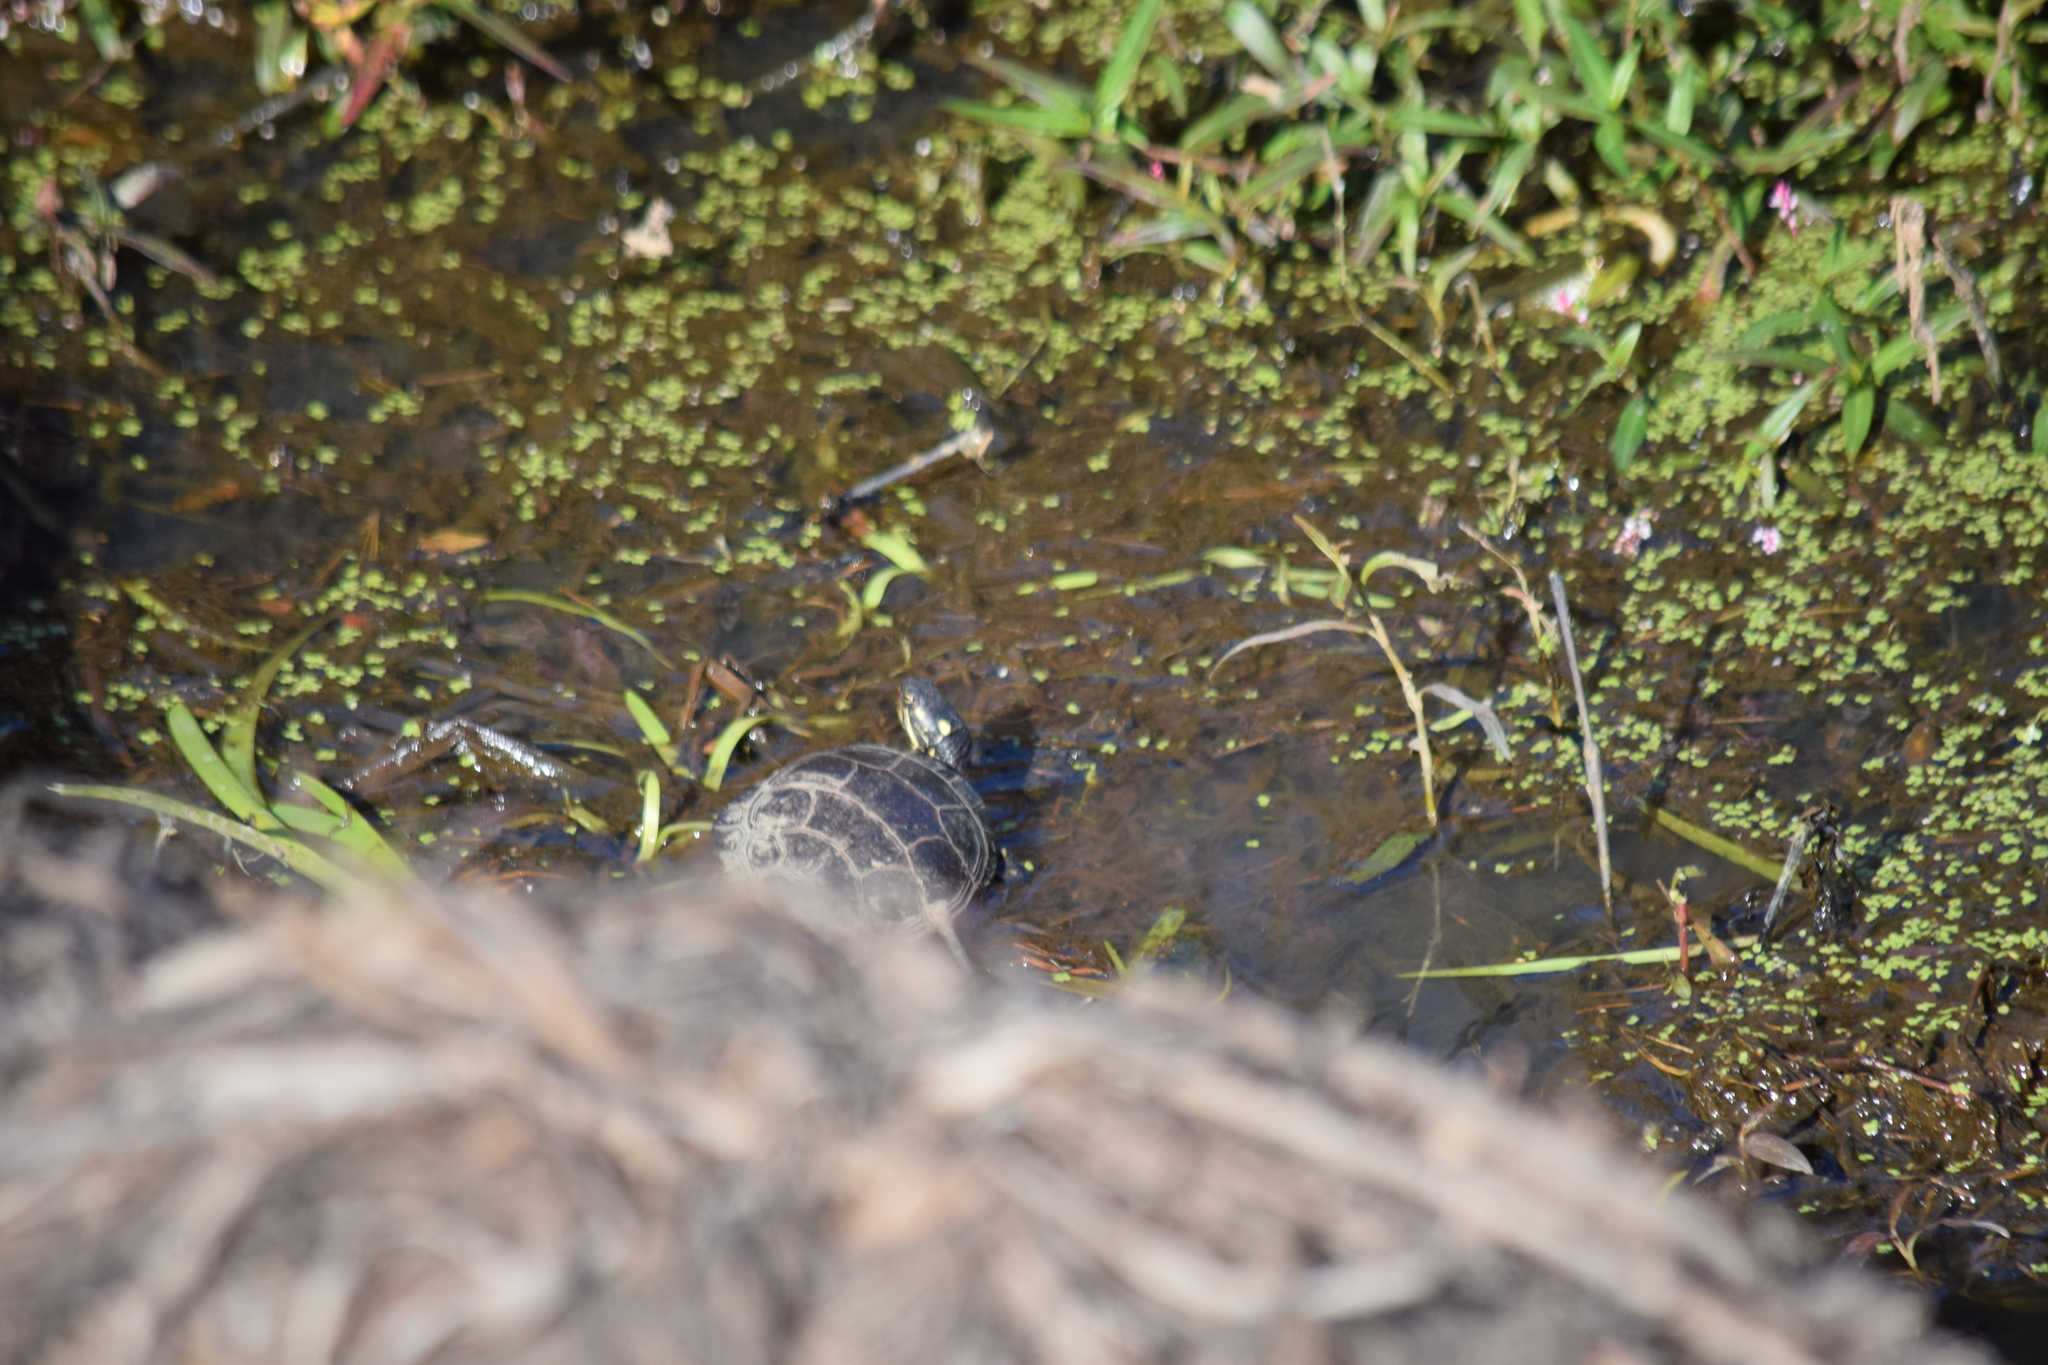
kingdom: Animalia
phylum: Chordata
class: Testudines
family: Emydidae
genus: Chrysemys
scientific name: Chrysemys picta
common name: Painted turtle
